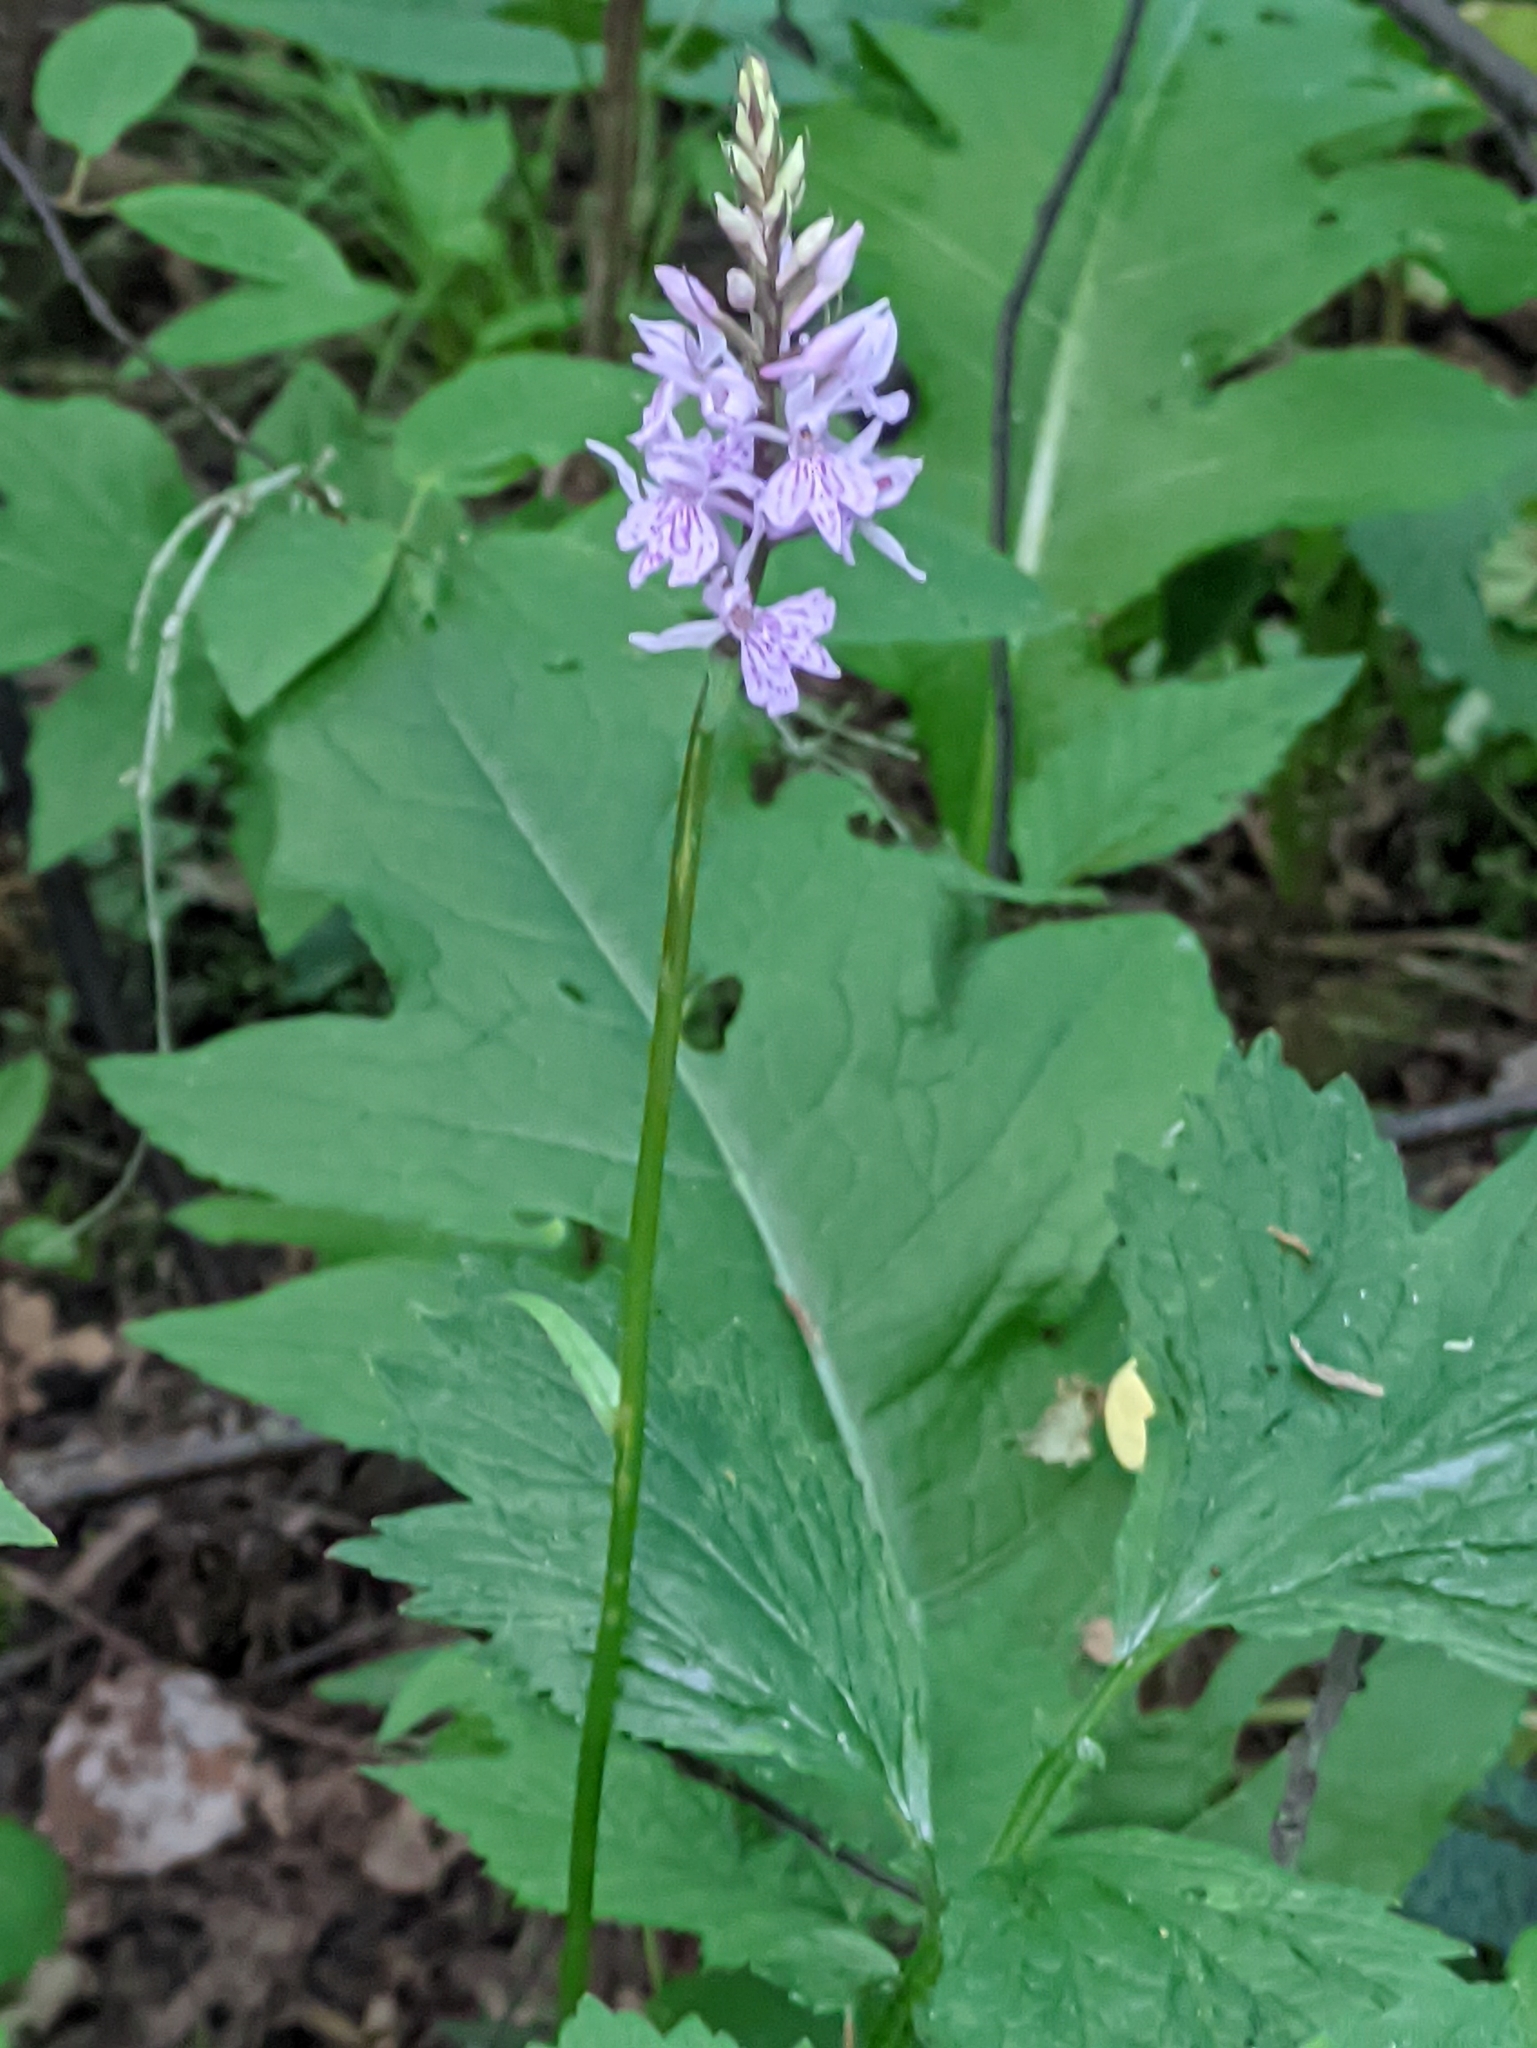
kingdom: Plantae
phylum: Tracheophyta
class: Liliopsida
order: Asparagales
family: Orchidaceae
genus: Dactylorhiza
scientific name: Dactylorhiza maculata
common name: Heath spotted-orchid
